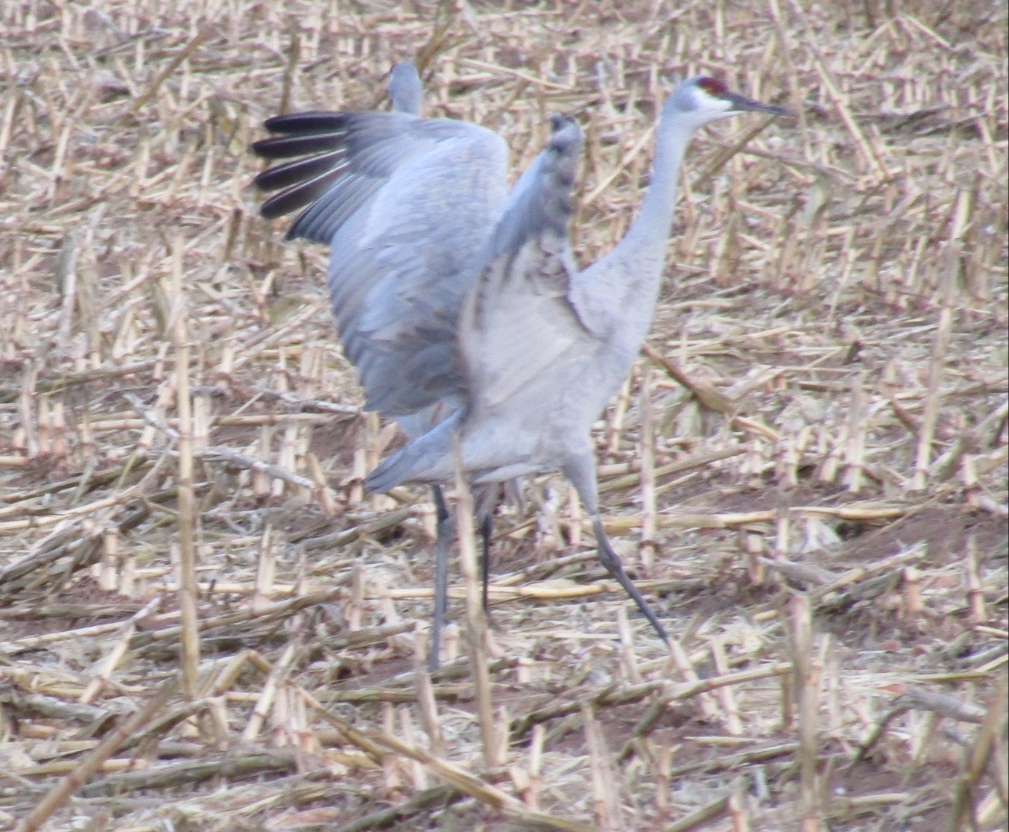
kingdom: Animalia
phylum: Chordata
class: Aves
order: Gruiformes
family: Gruidae
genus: Grus
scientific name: Grus canadensis
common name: Sandhill crane
